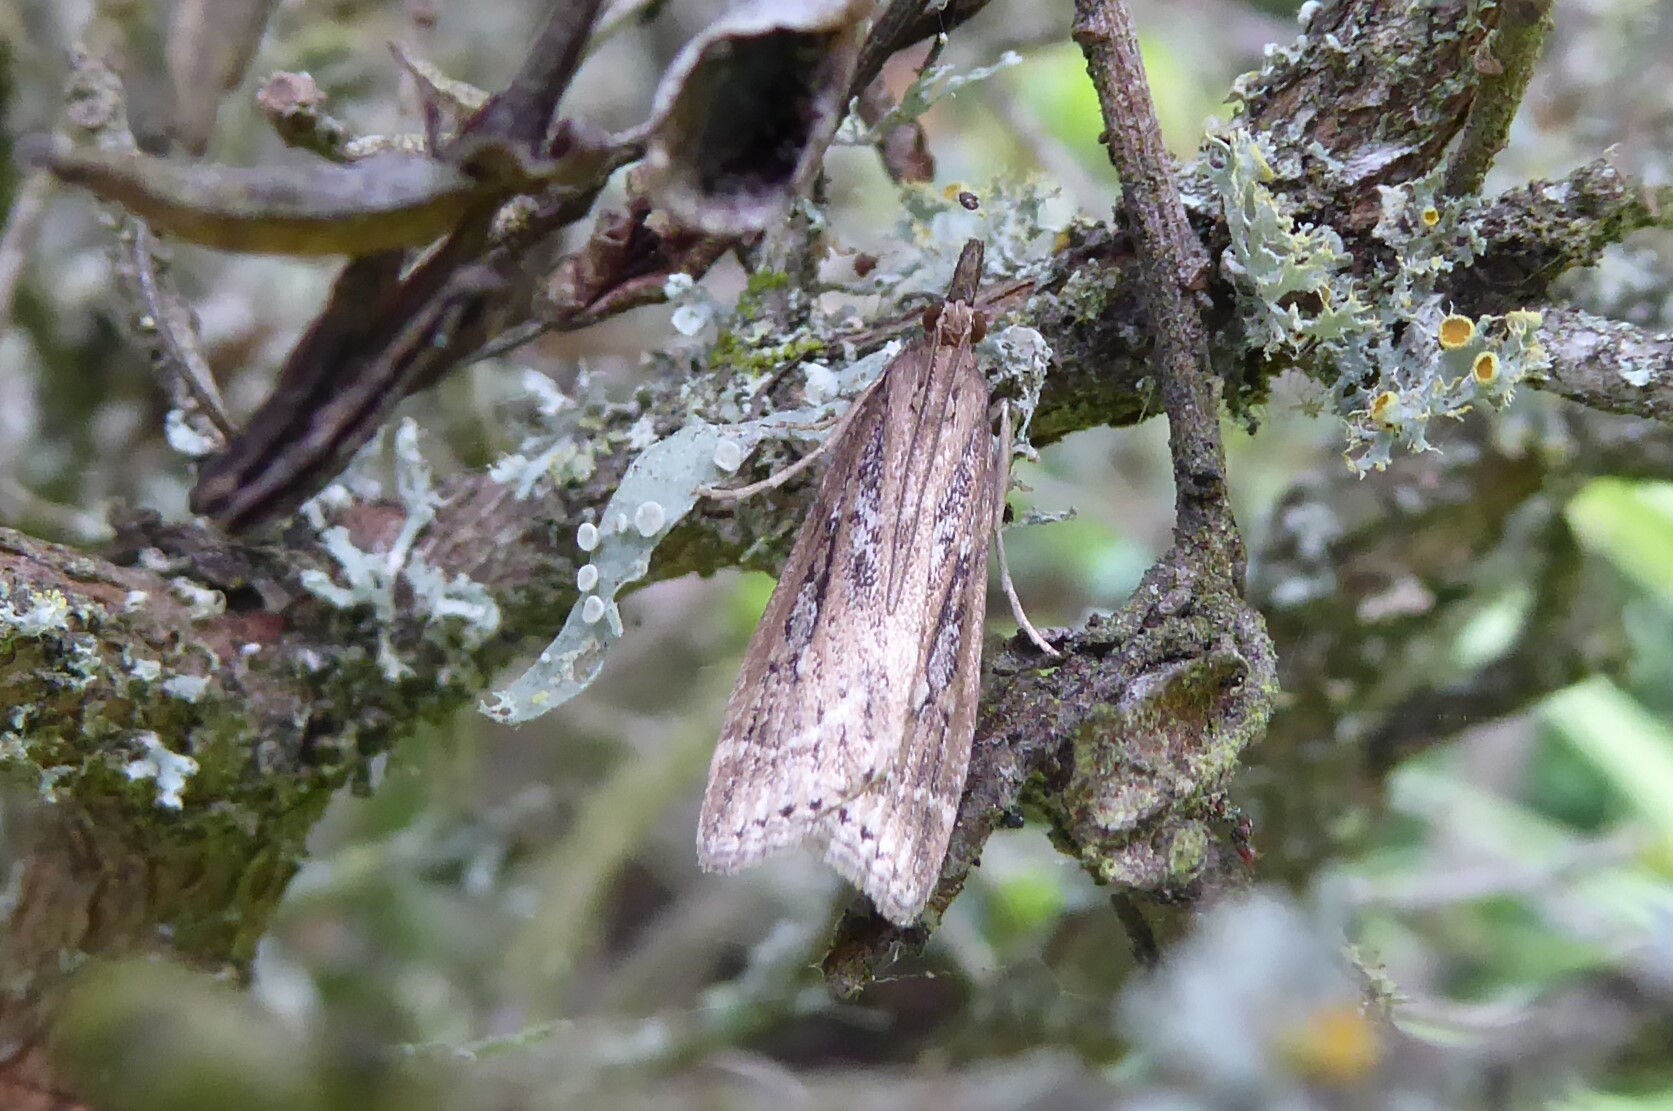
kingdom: Animalia
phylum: Arthropoda
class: Insecta
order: Lepidoptera
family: Crambidae
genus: Eudonia
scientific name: Eudonia octophora
